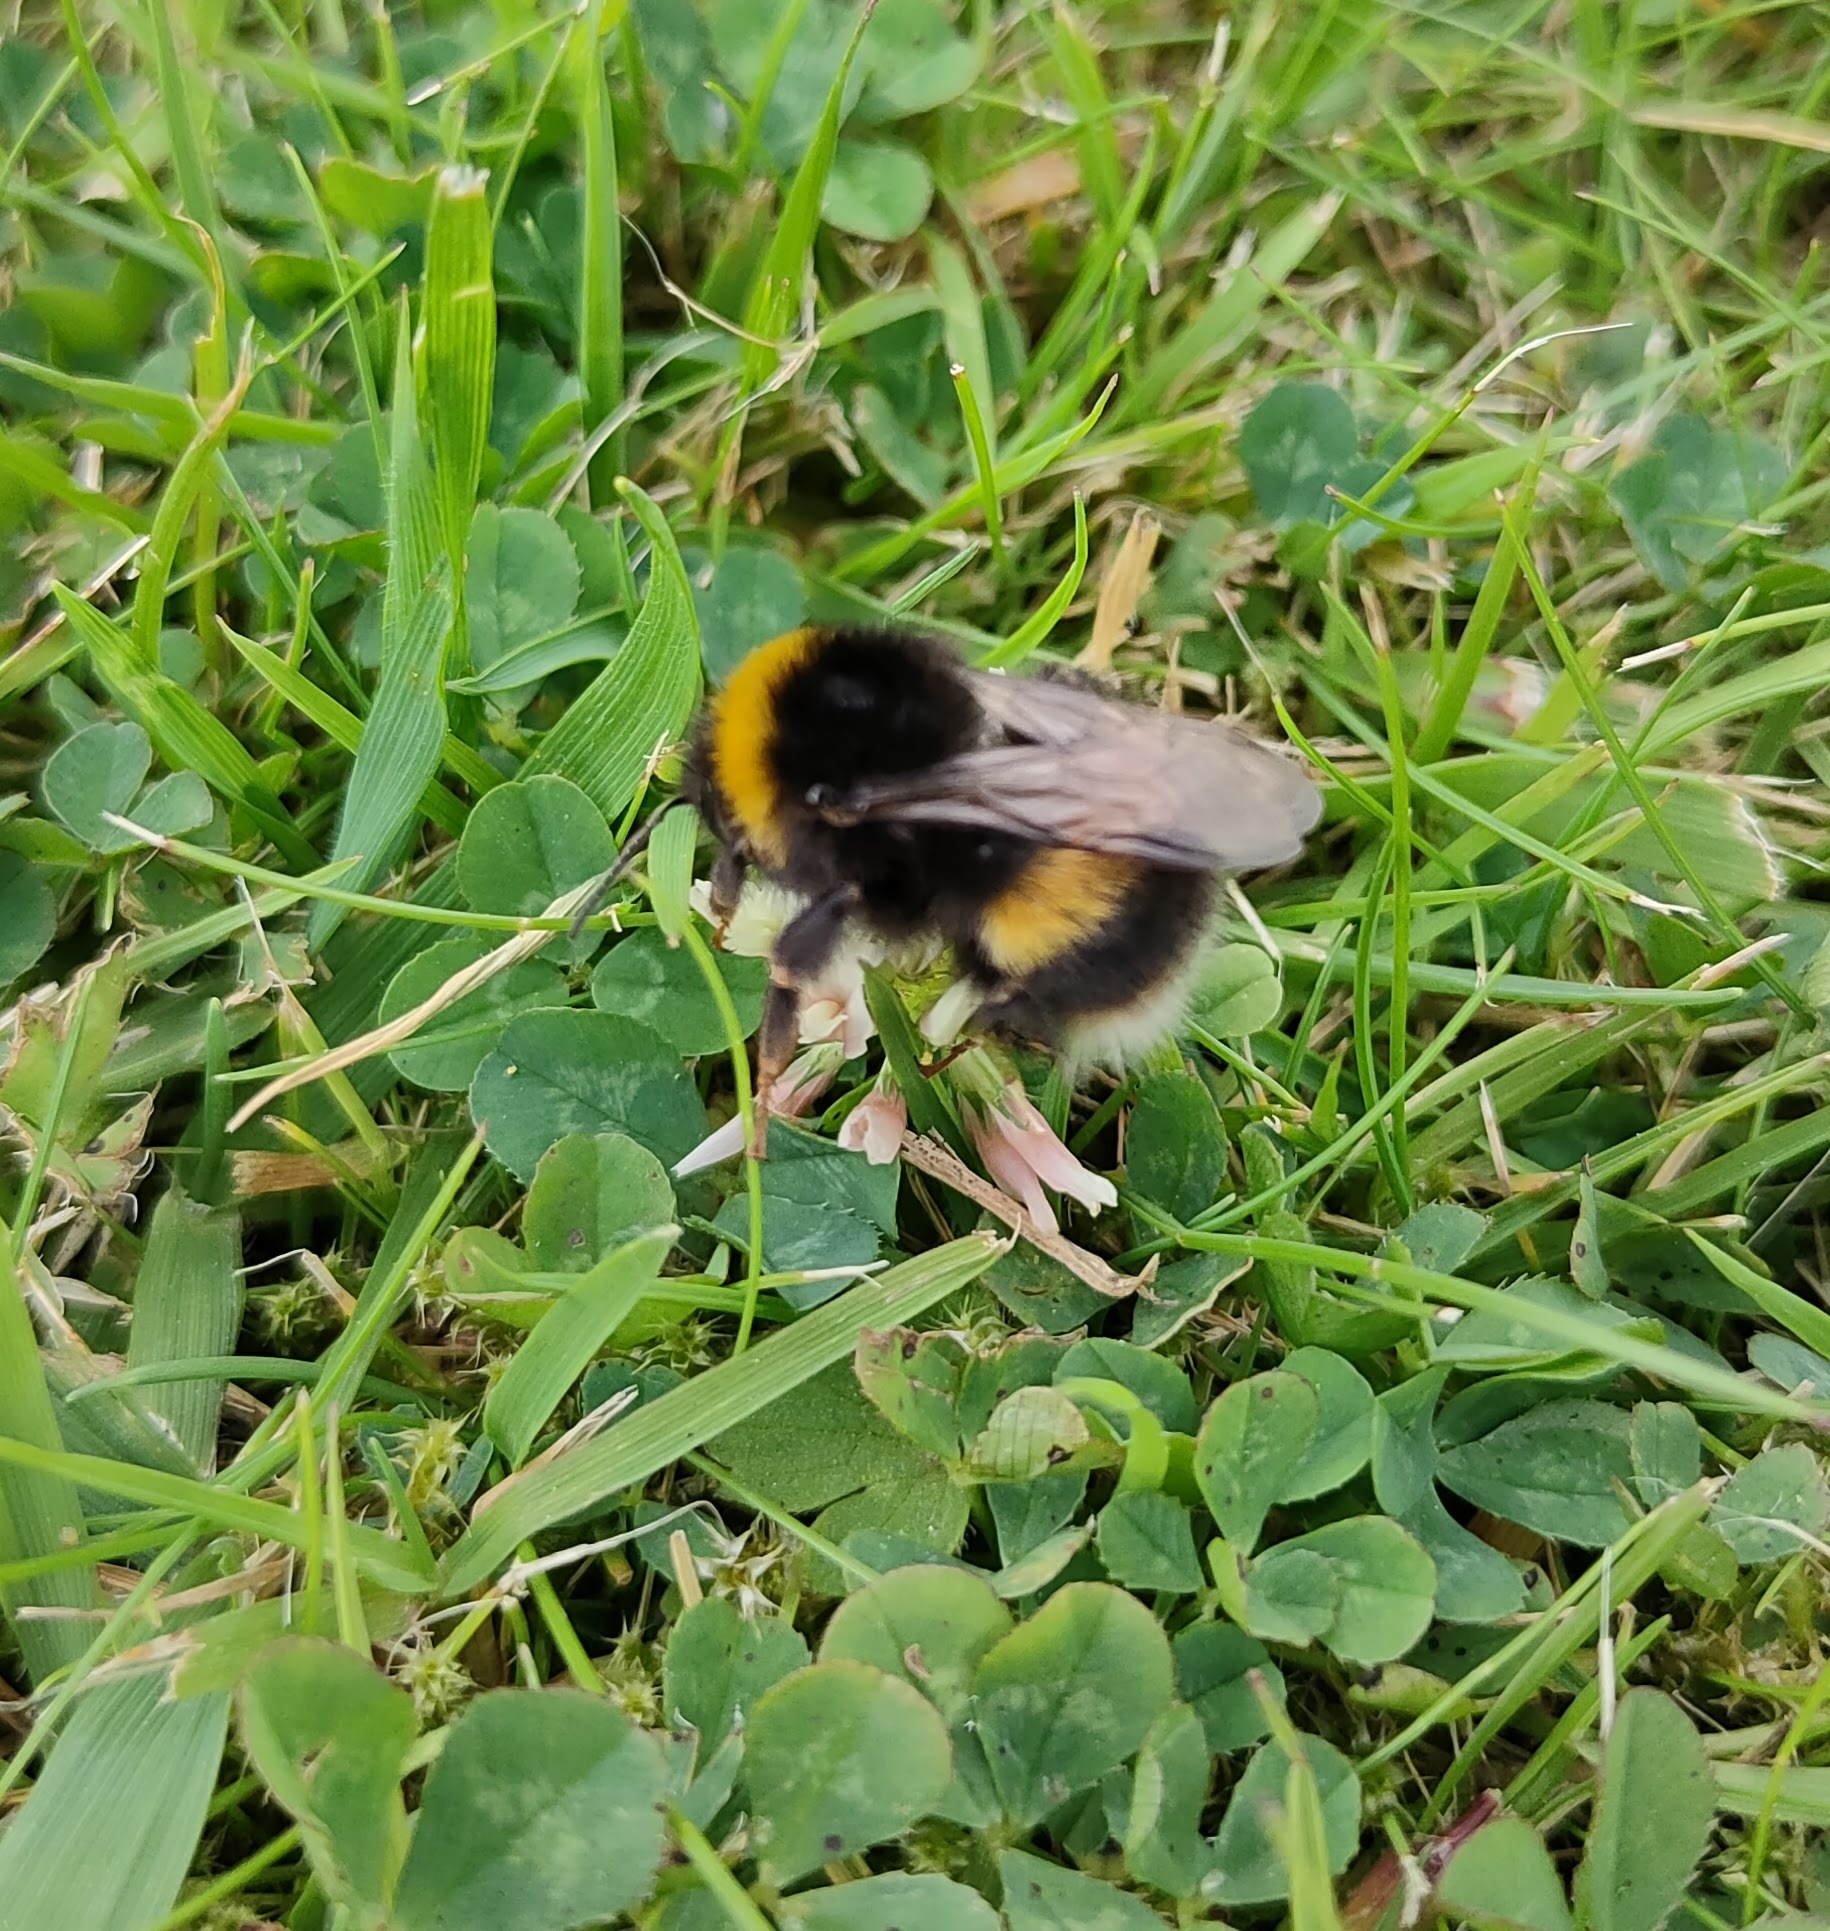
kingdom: Animalia
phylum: Arthropoda
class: Insecta
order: Hymenoptera
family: Apidae
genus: Bombus
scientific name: Bombus terrestris
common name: Buff-tailed bumblebee
